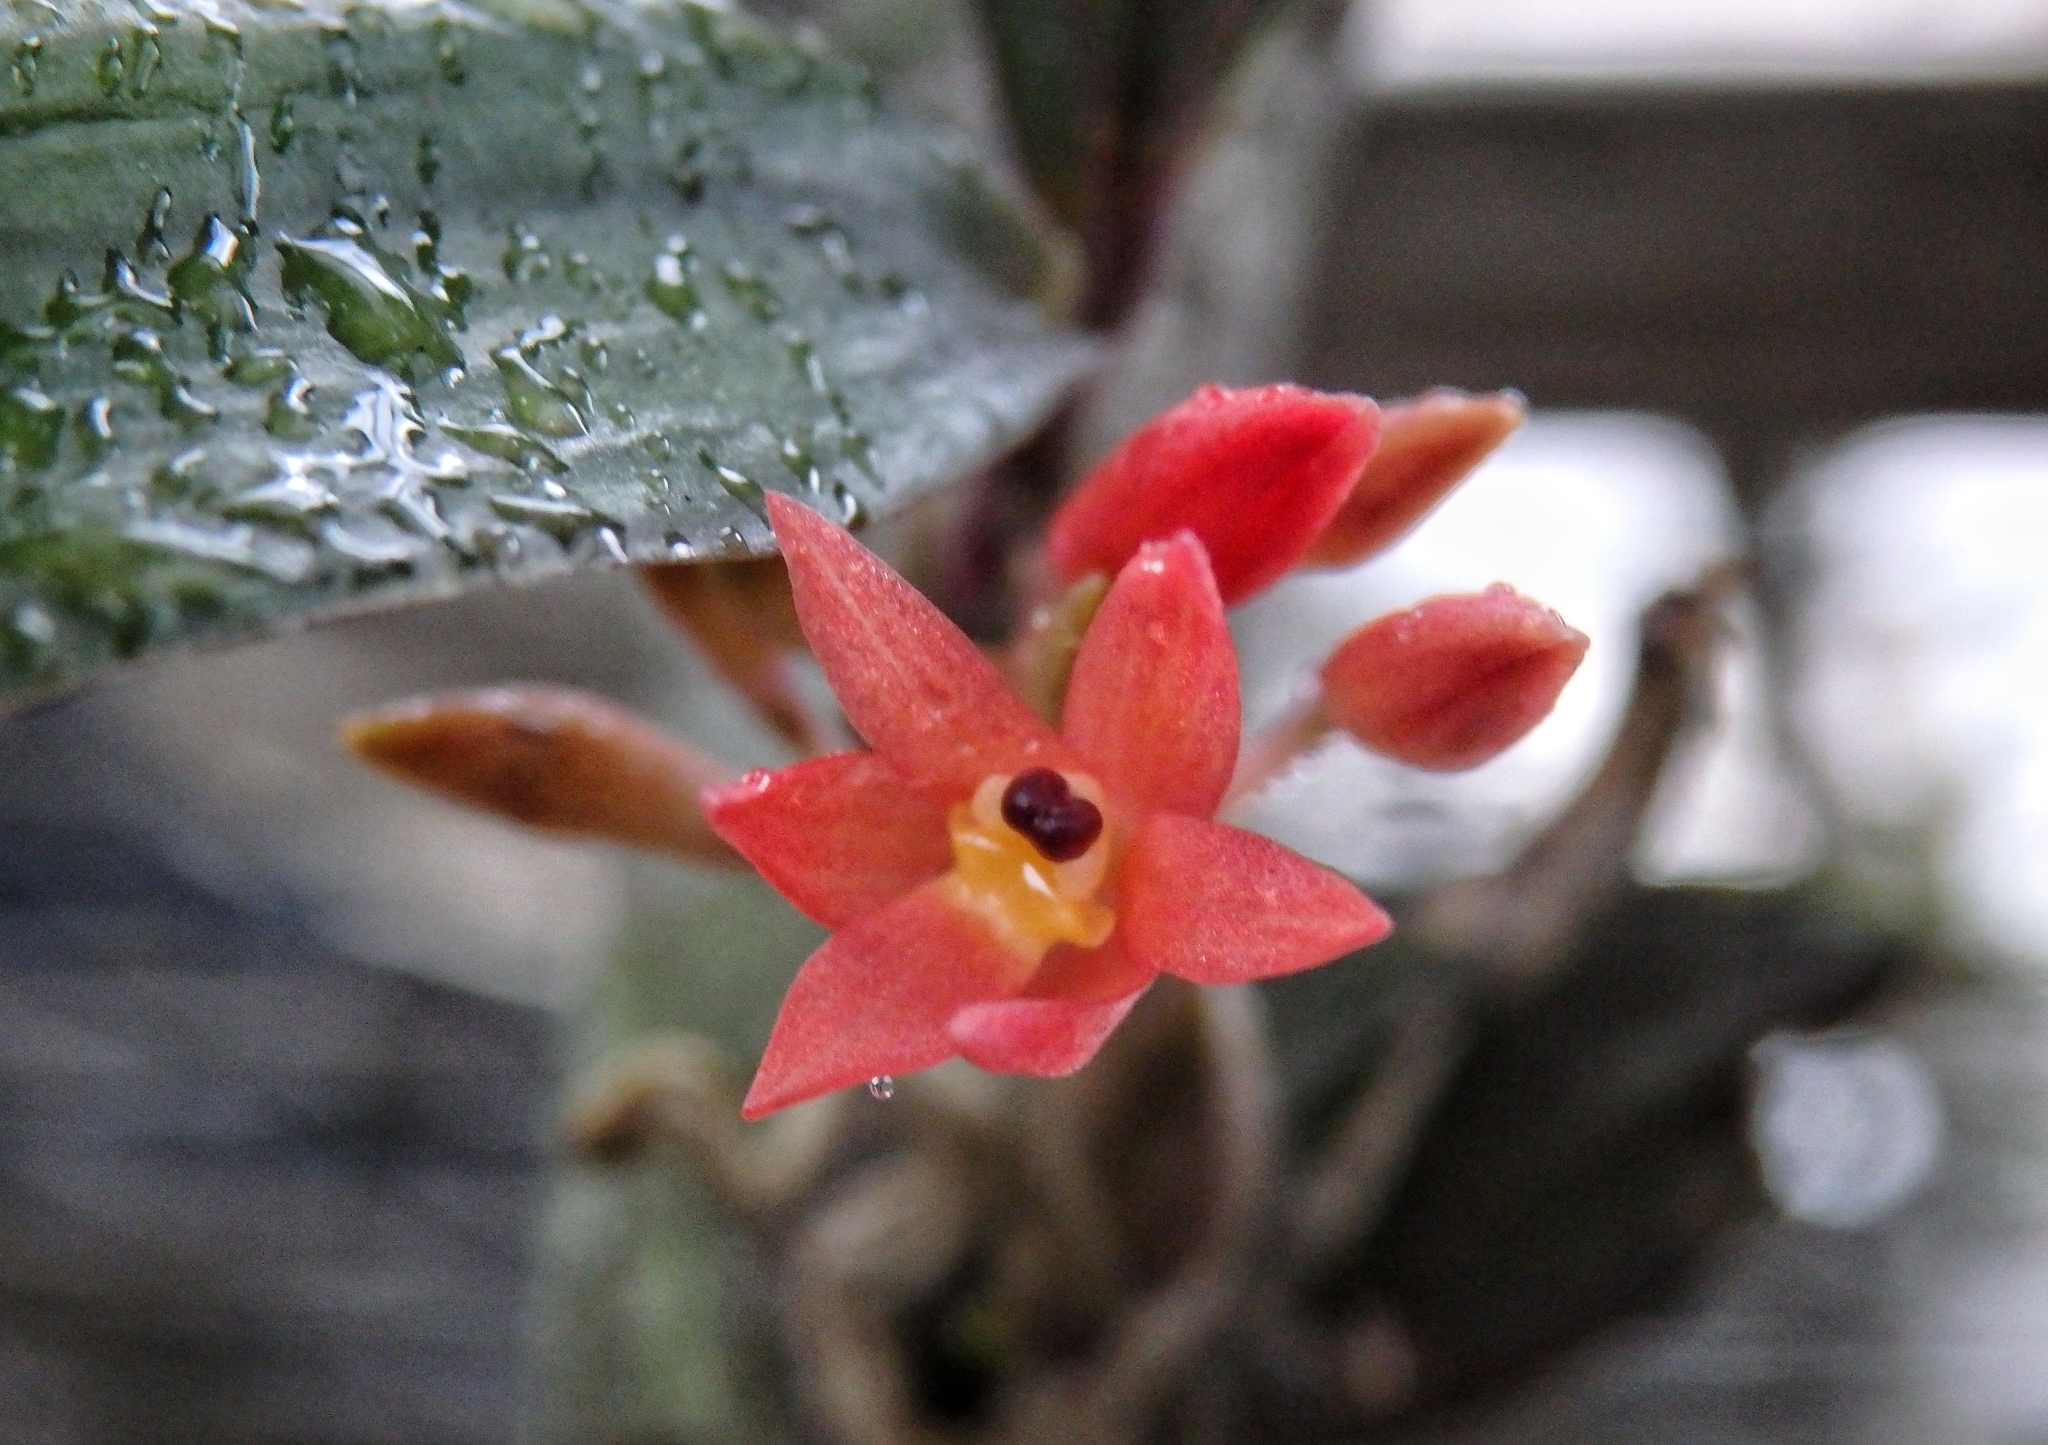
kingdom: Plantae
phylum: Tracheophyta
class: Liliopsida
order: Asparagales
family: Orchidaceae
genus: Alamania
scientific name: Alamania punicea
